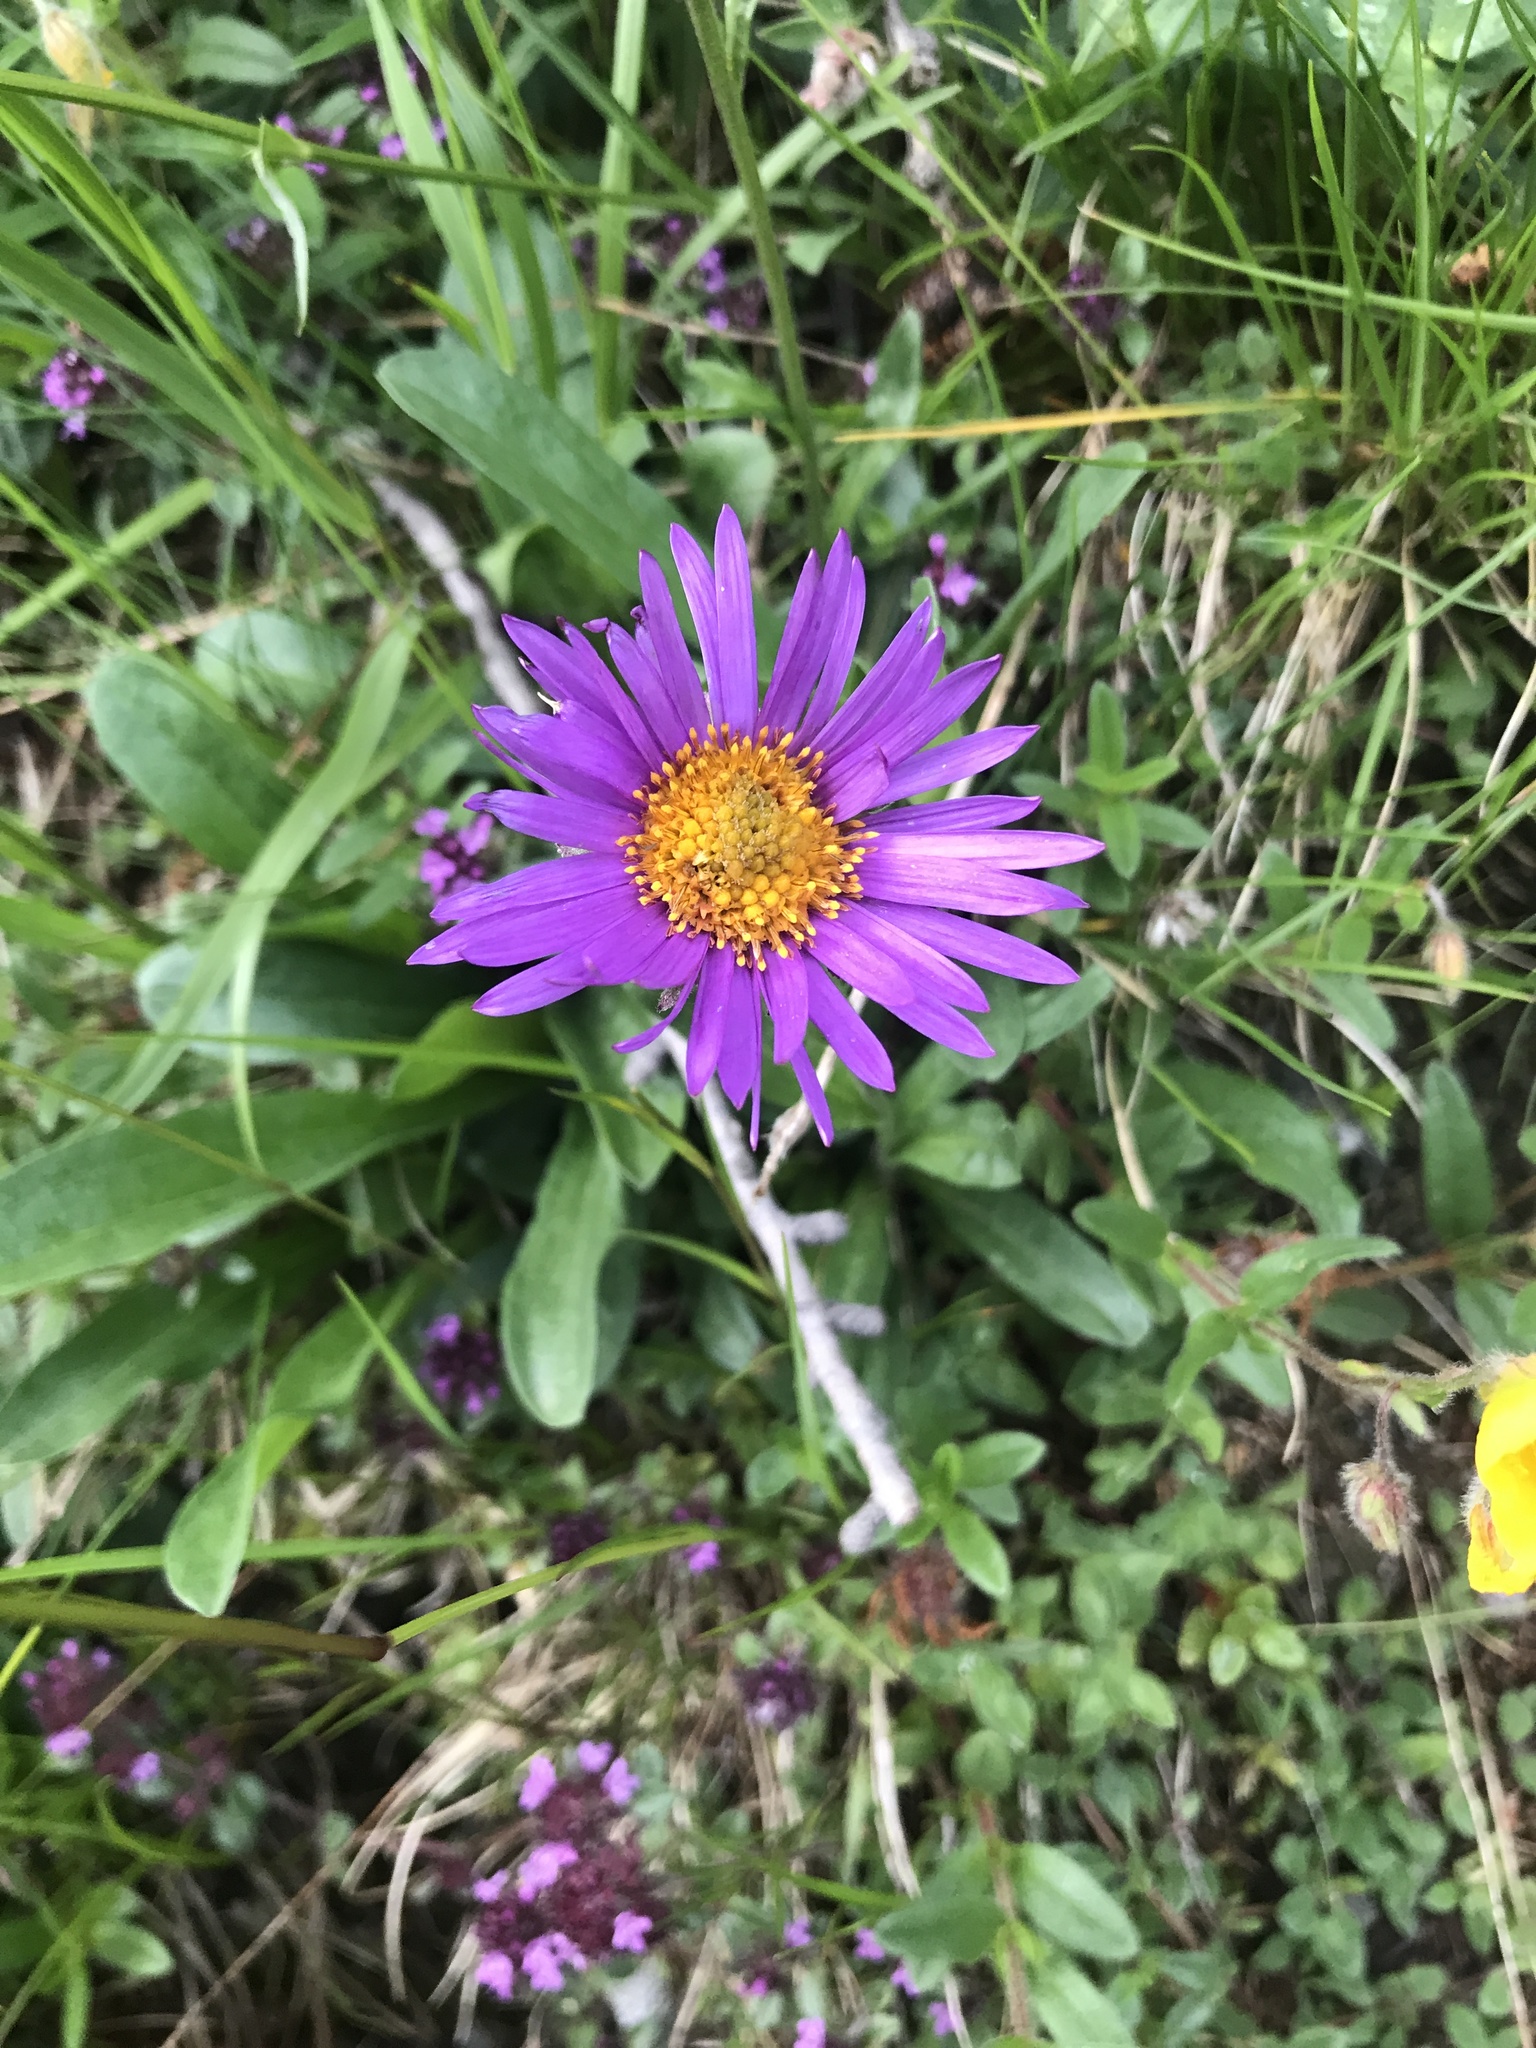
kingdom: Plantae
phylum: Tracheophyta
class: Magnoliopsida
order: Asterales
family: Asteraceae
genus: Aster
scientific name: Aster alpinus
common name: Alpine aster
